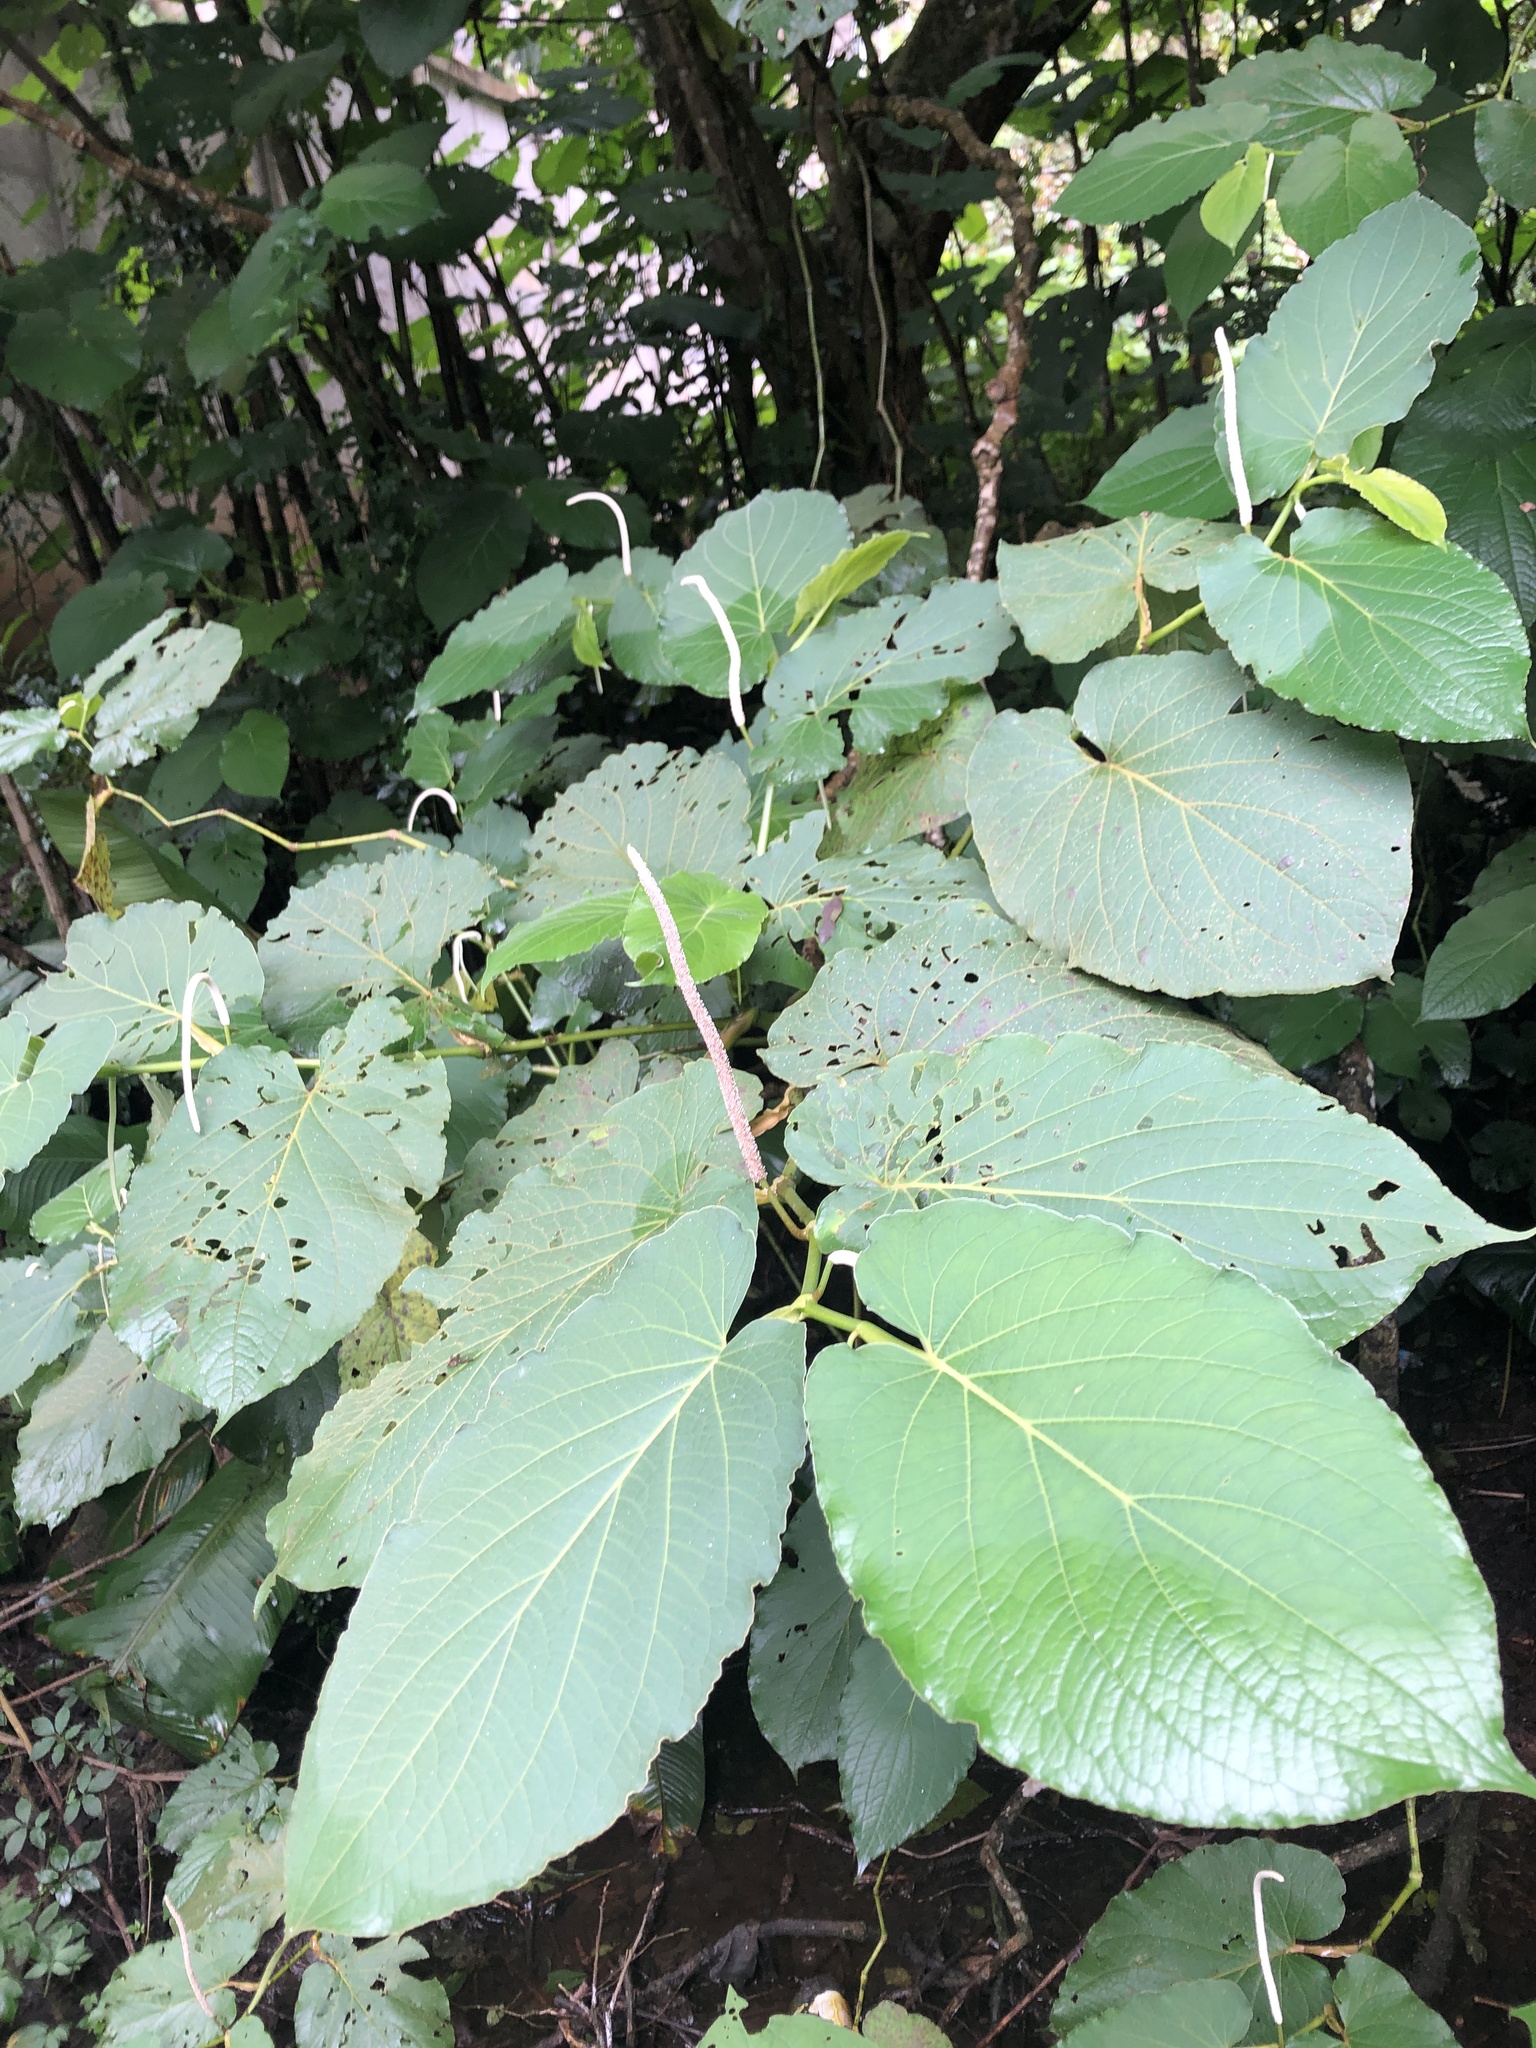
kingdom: Plantae
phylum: Tracheophyta
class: Magnoliopsida
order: Piperales
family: Piperaceae
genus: Piper
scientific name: Piper auritum
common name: Vera cruz pepper
